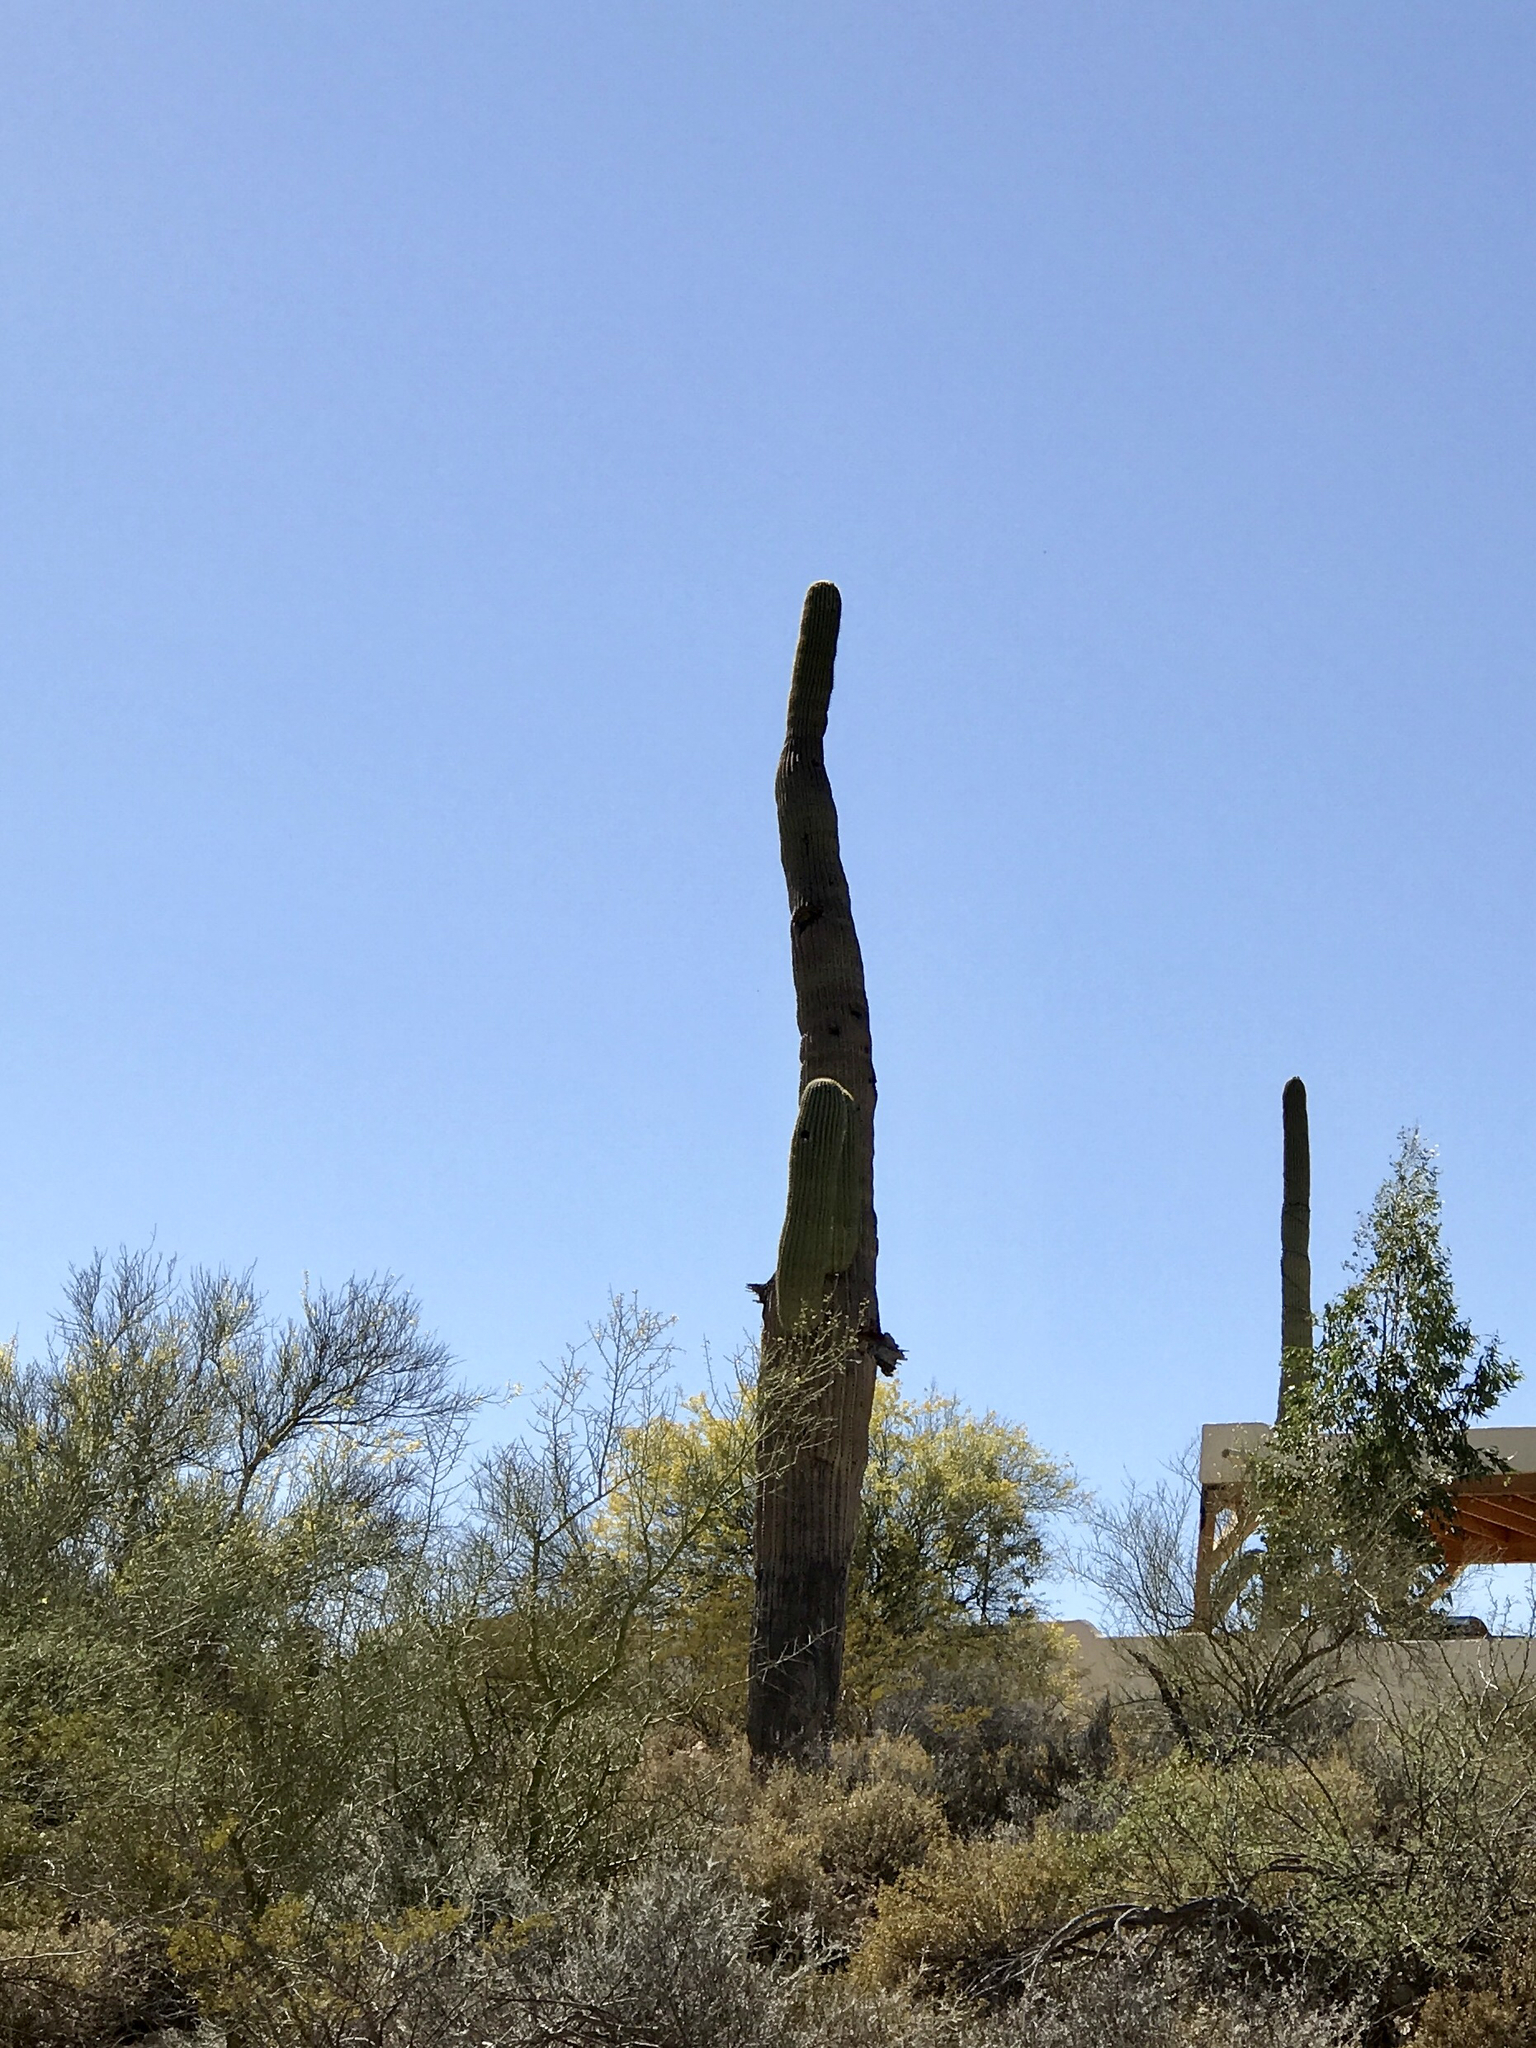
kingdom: Plantae
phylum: Tracheophyta
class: Magnoliopsida
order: Caryophyllales
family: Cactaceae
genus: Carnegiea
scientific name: Carnegiea gigantea
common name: Saguaro
